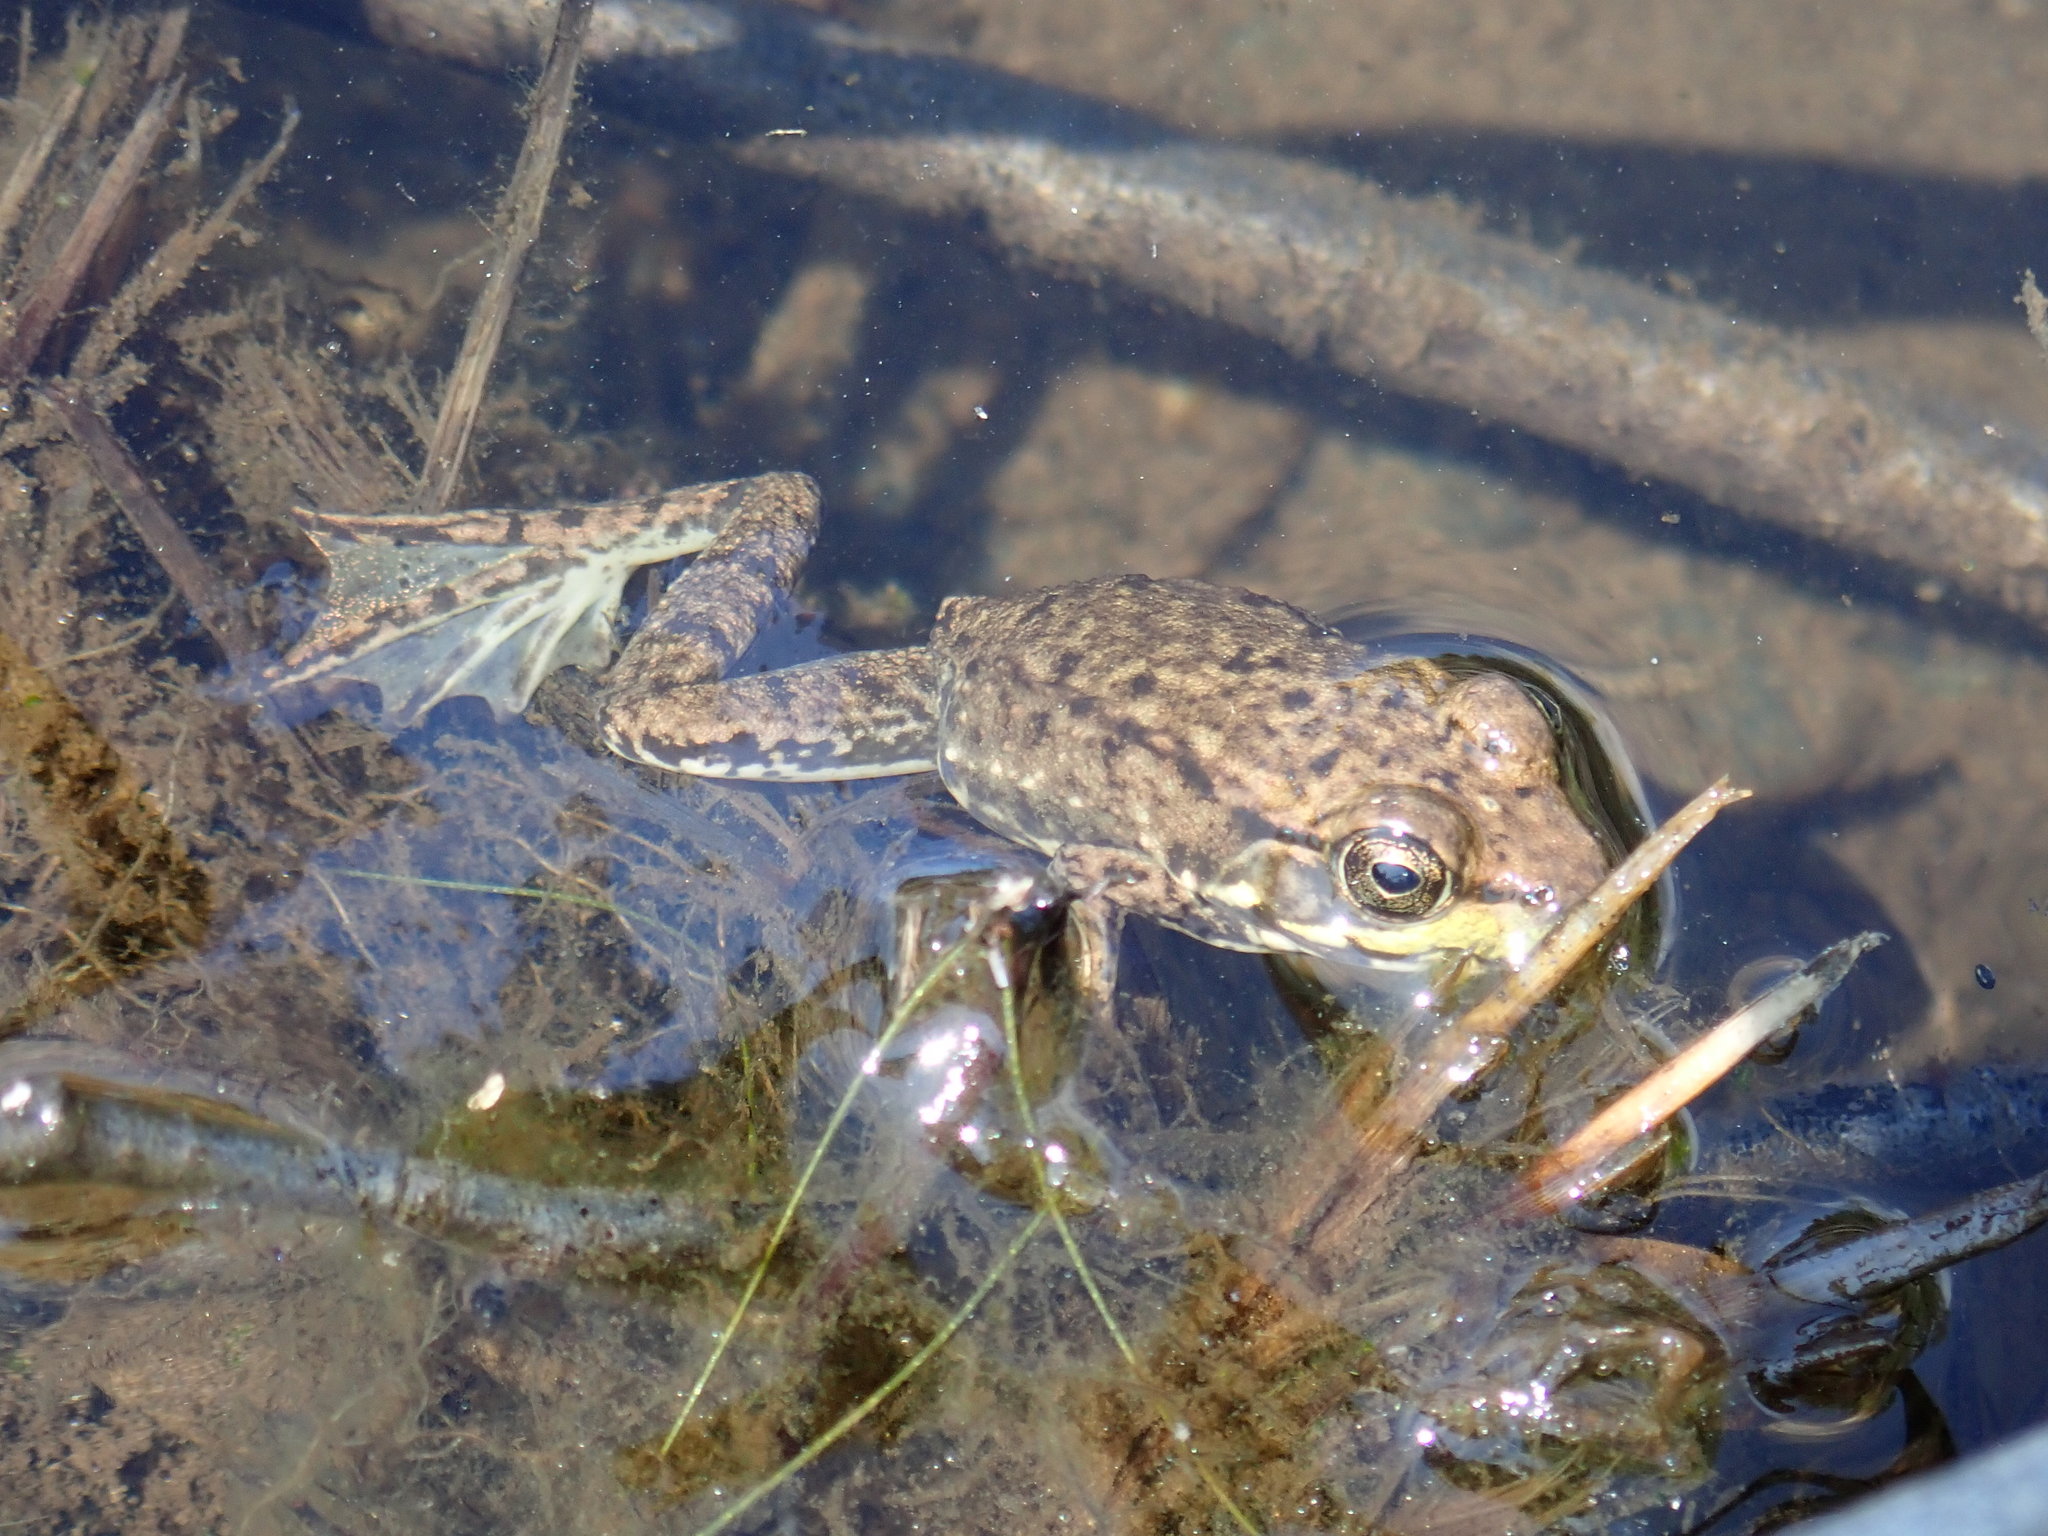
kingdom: Animalia
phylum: Chordata
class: Amphibia
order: Anura
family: Ranidae
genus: Lithobates
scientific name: Lithobates clamitans
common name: Green frog
